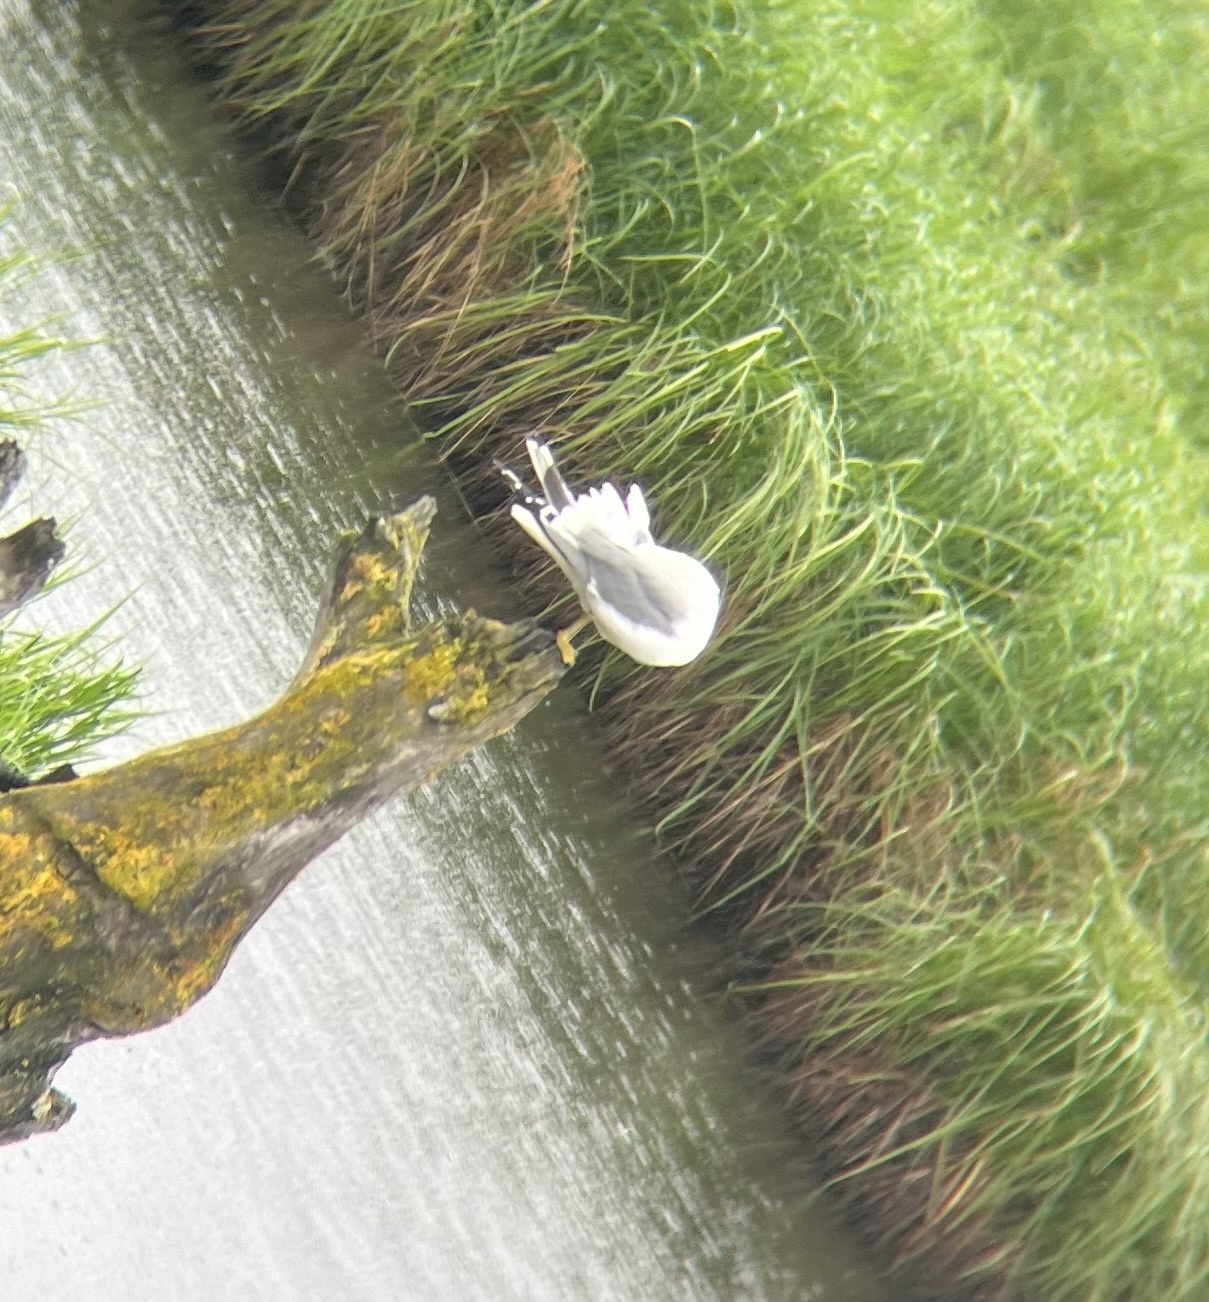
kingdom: Animalia
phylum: Chordata
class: Aves
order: Charadriiformes
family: Laridae
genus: Larus
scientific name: Larus brachyrhynchus
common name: Short-billed gull
